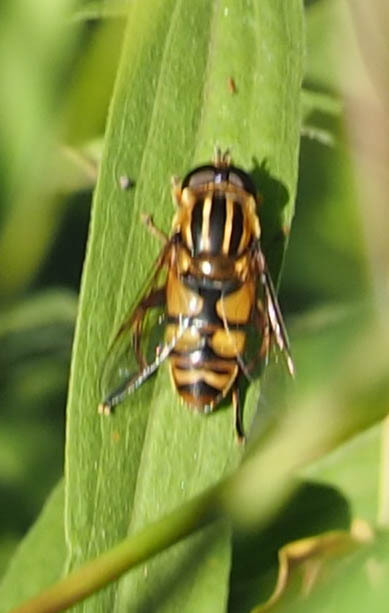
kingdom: Animalia
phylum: Arthropoda
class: Insecta
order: Diptera
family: Syrphidae
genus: Helophilus
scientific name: Helophilus fasciatus
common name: Narrow-headed marsh fly
